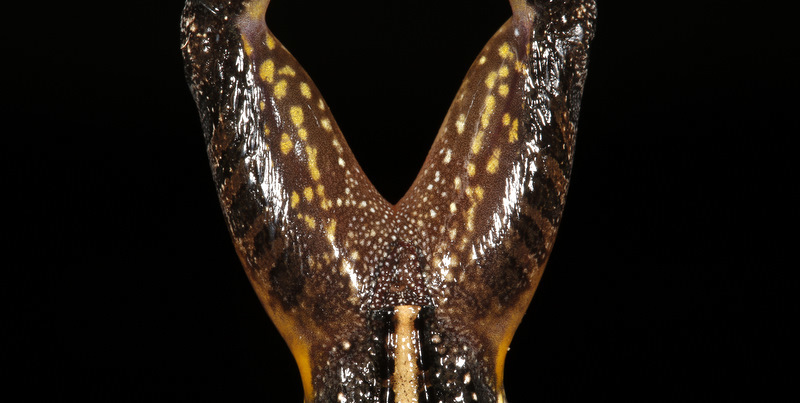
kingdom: Animalia
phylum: Chordata
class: Amphibia
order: Anura
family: Ptychadenidae
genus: Ptychadena
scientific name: Ptychadena uzungwensis
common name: Udzungwa ridged frog
